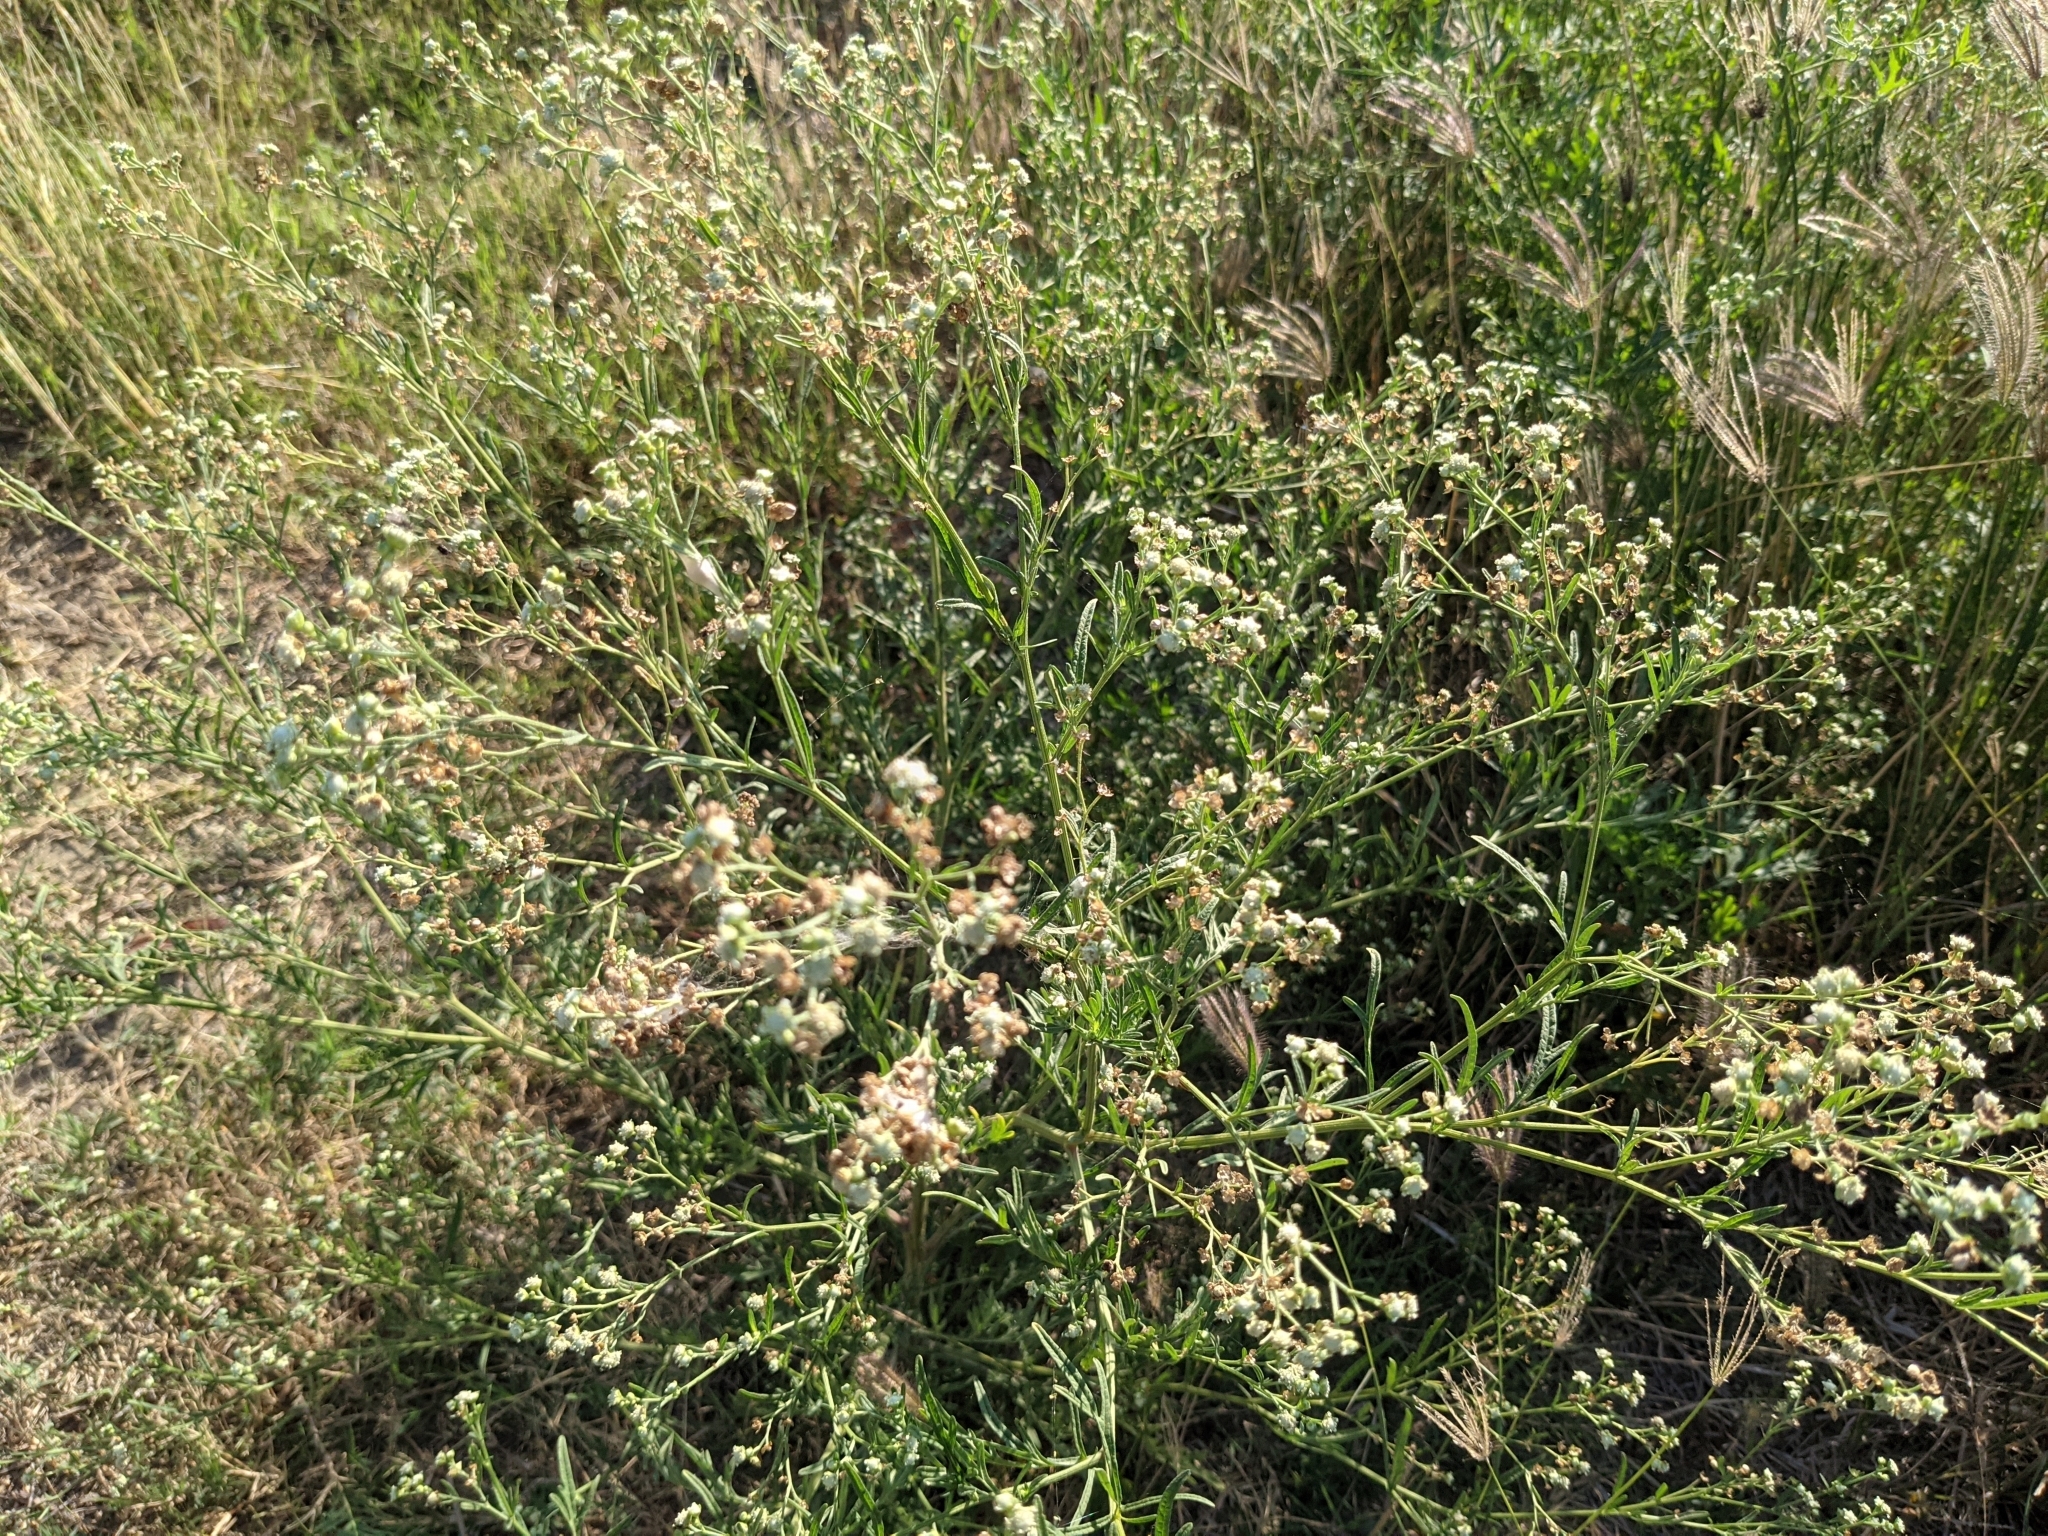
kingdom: Plantae
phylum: Tracheophyta
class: Magnoliopsida
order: Asterales
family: Asteraceae
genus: Parthenium
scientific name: Parthenium hysterophorus
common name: Santa maria feverfew
